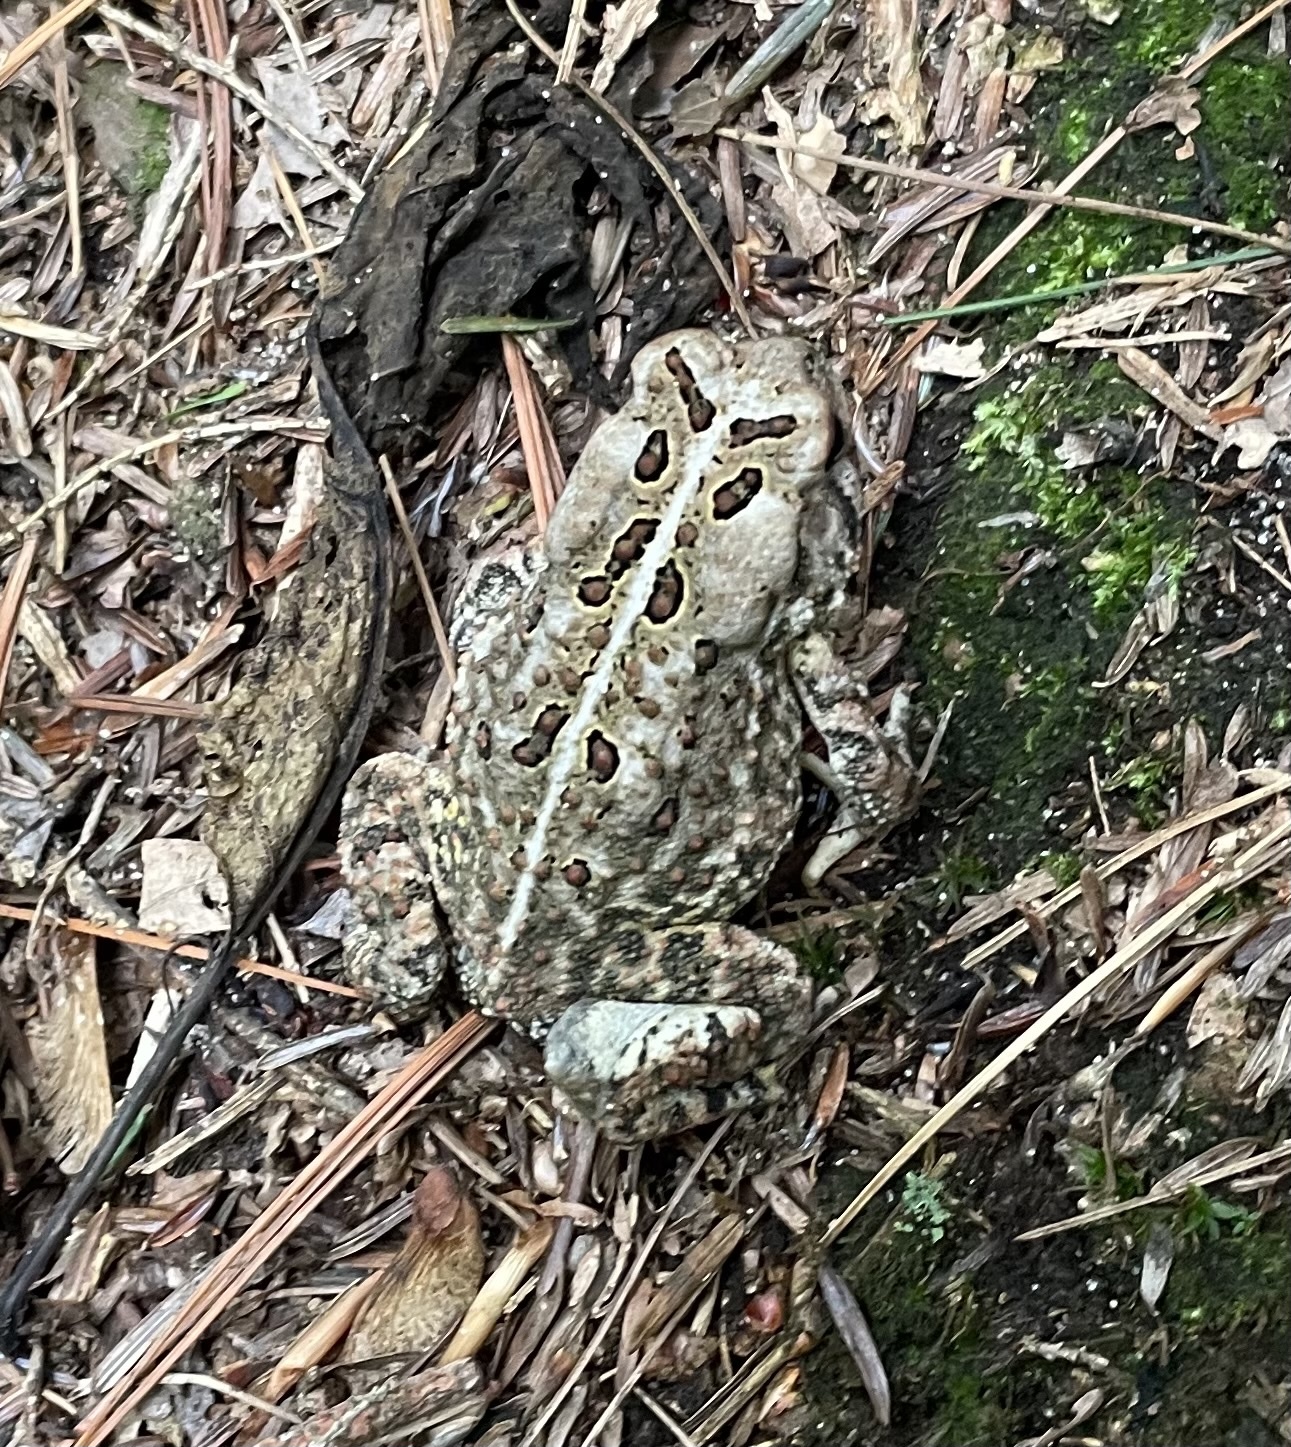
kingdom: Animalia
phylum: Chordata
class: Amphibia
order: Anura
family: Bufonidae
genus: Anaxyrus
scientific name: Anaxyrus fowleri
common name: Fowler's toad
